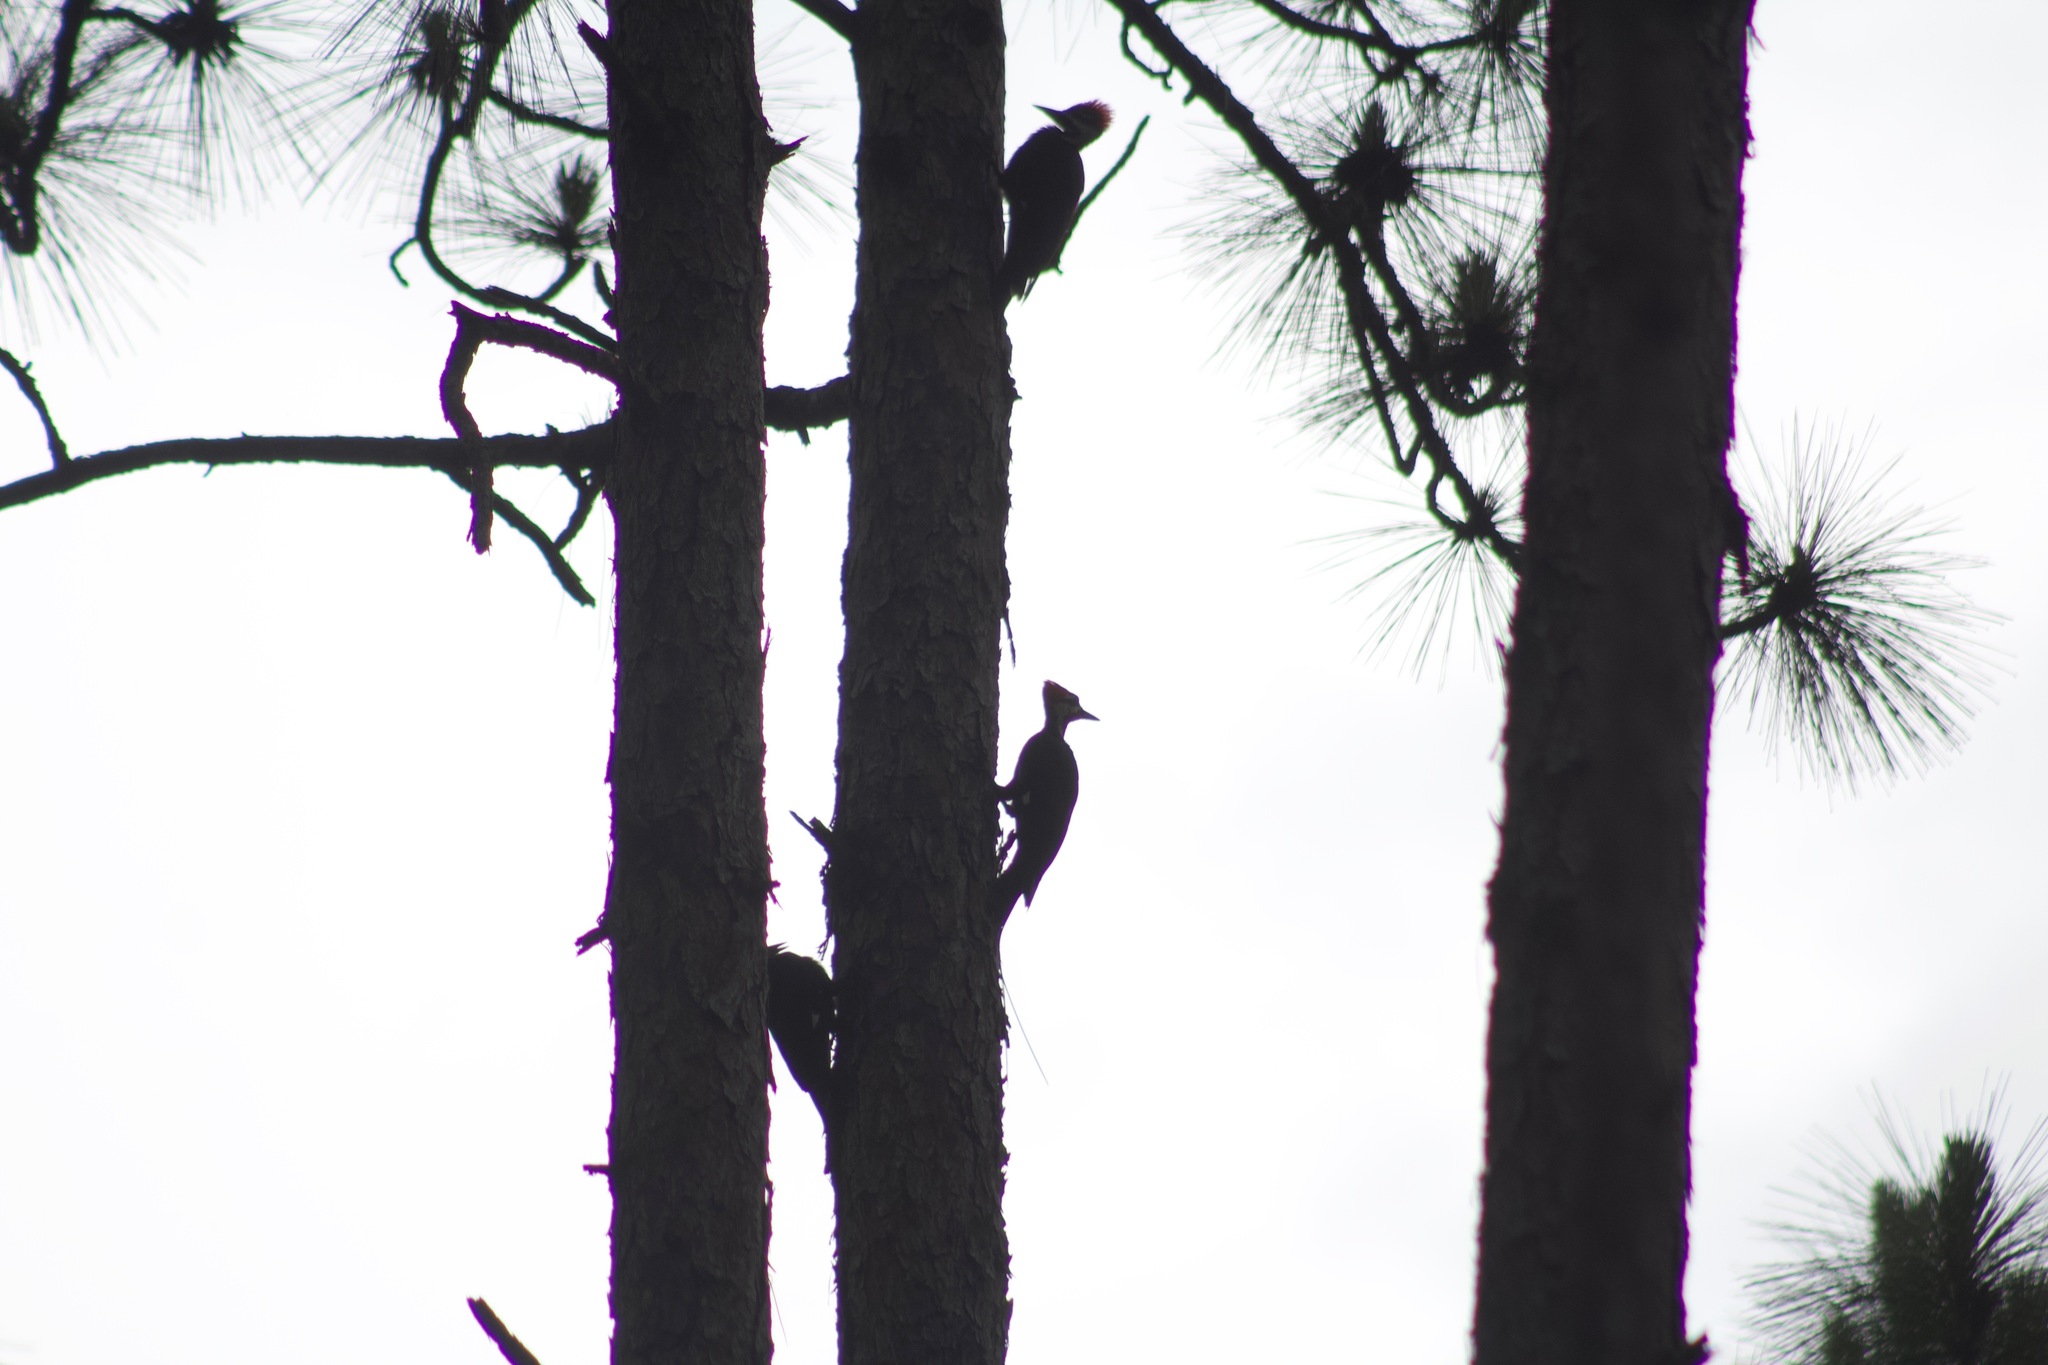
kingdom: Animalia
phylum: Chordata
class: Aves
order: Piciformes
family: Picidae
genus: Dryocopus
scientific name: Dryocopus pileatus
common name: Pileated woodpecker
